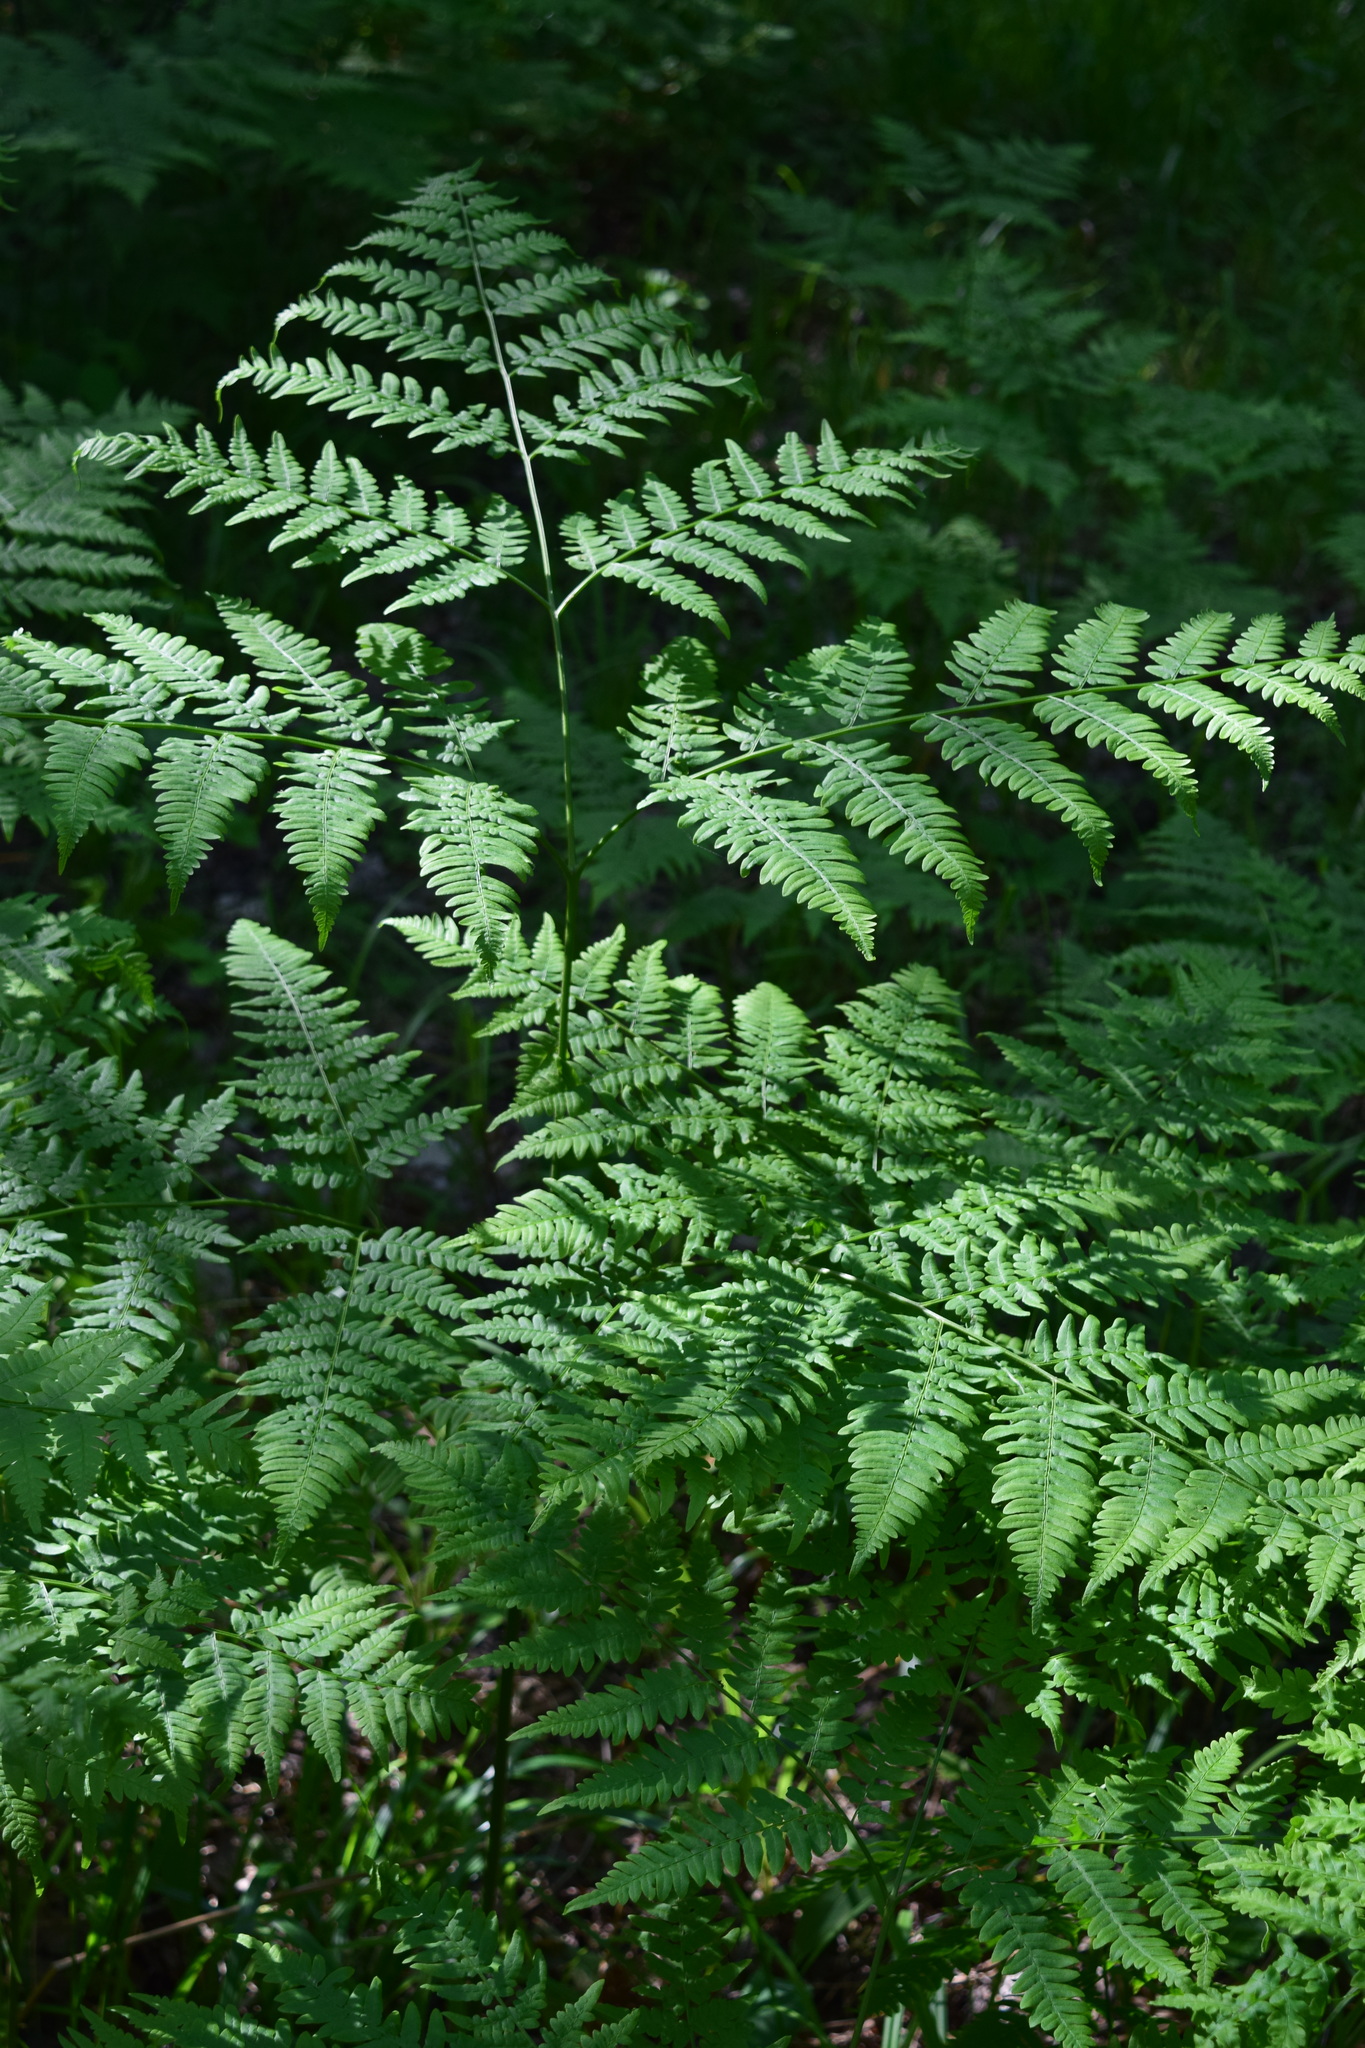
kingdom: Plantae
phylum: Tracheophyta
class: Polypodiopsida
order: Polypodiales
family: Dennstaedtiaceae
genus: Pteridium
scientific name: Pteridium aquilinum
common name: Bracken
